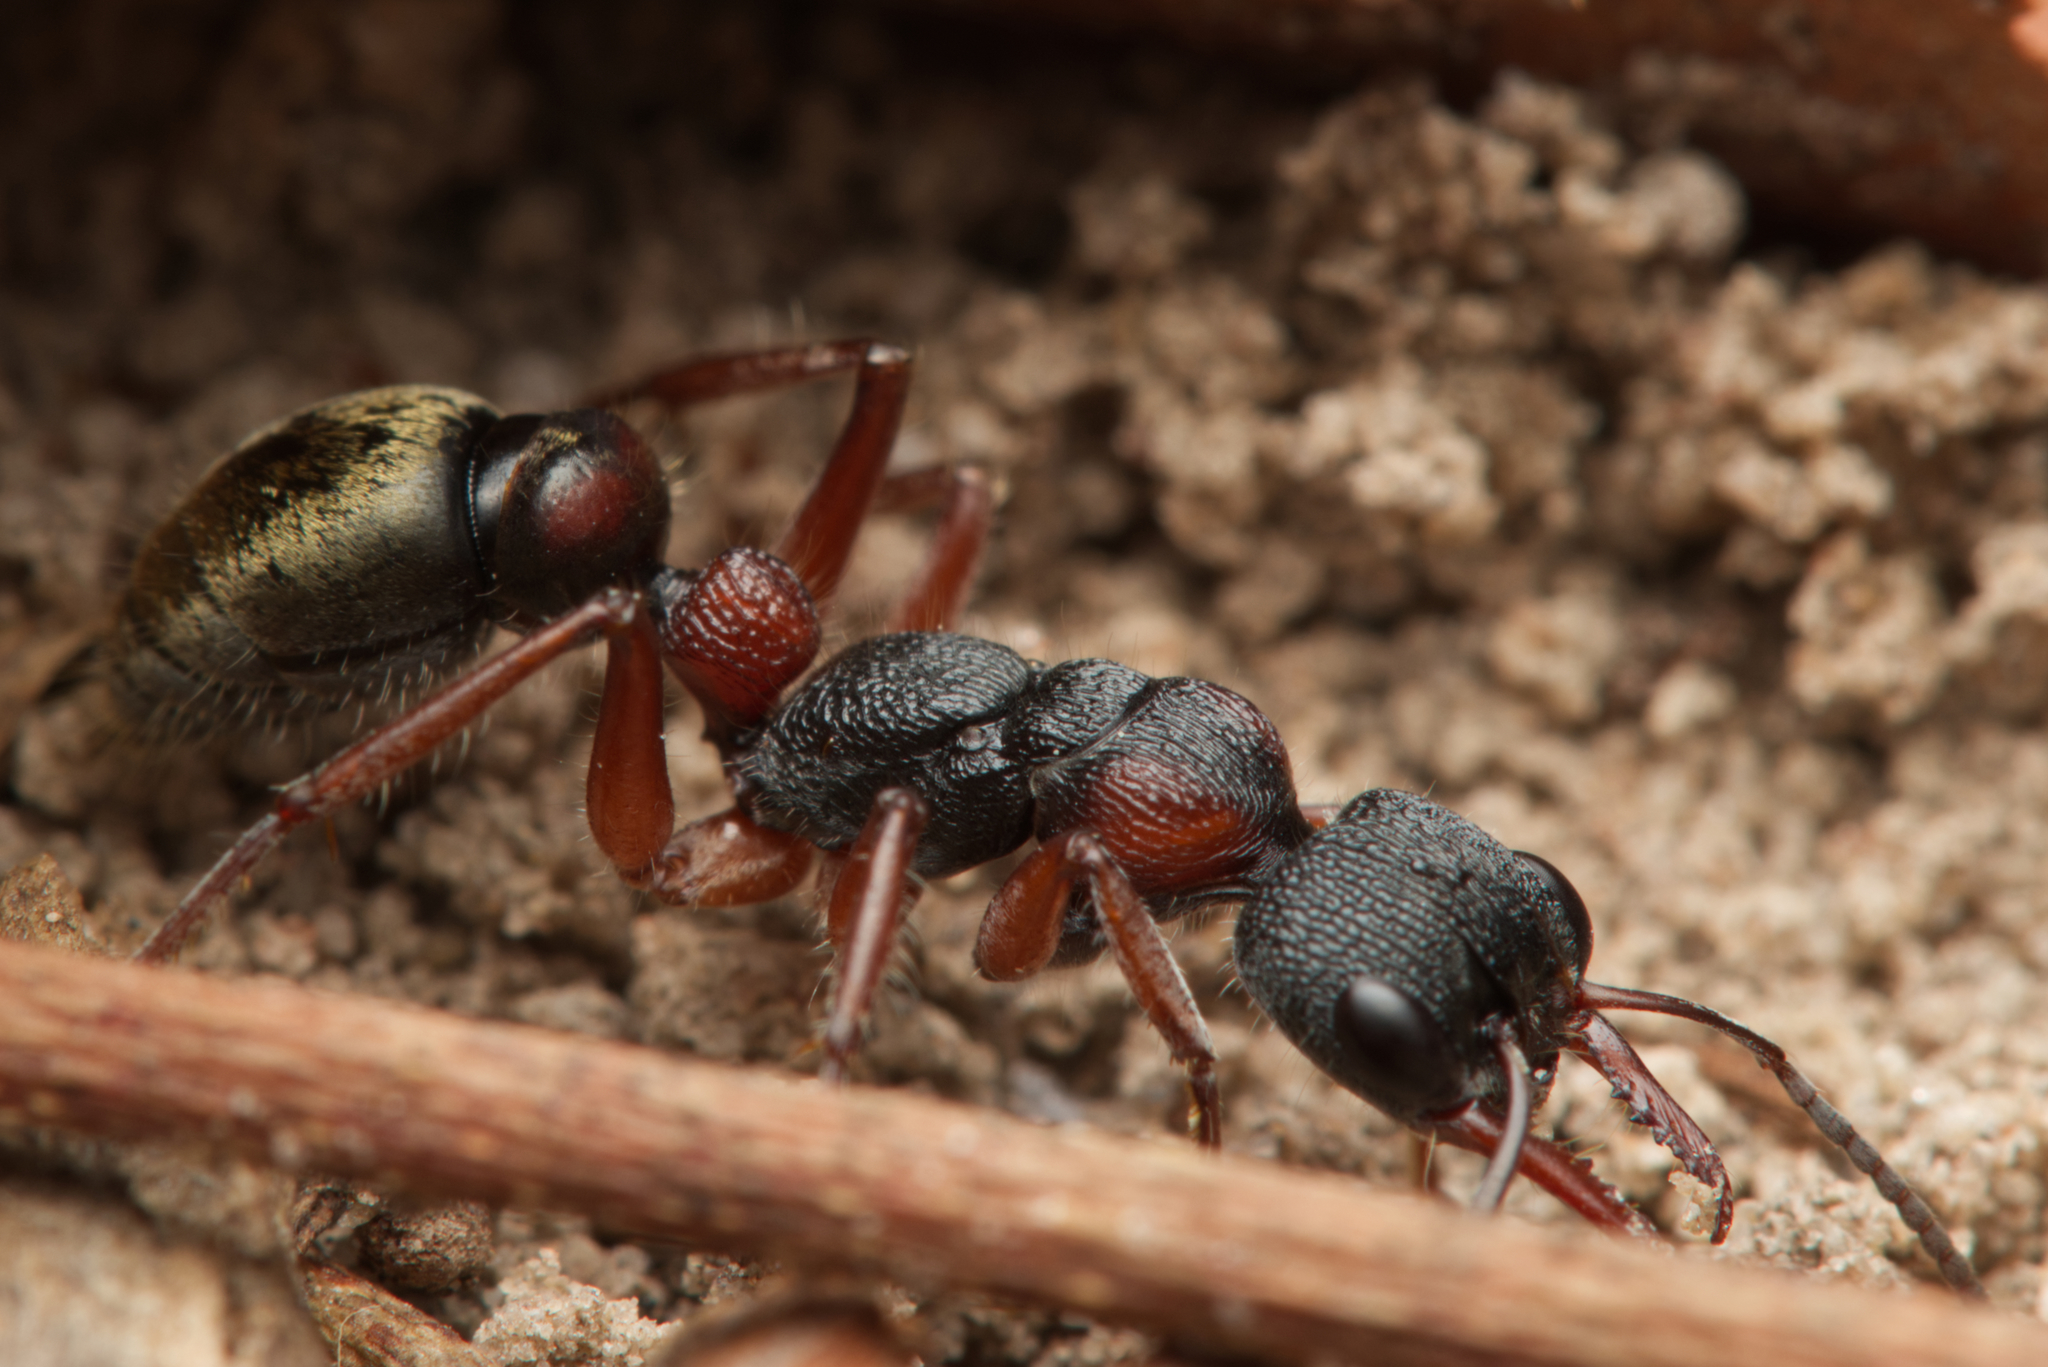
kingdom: Animalia
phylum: Arthropoda
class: Insecta
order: Hymenoptera
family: Formicidae
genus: Myrmecia
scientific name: Myrmecia chrysogaster
